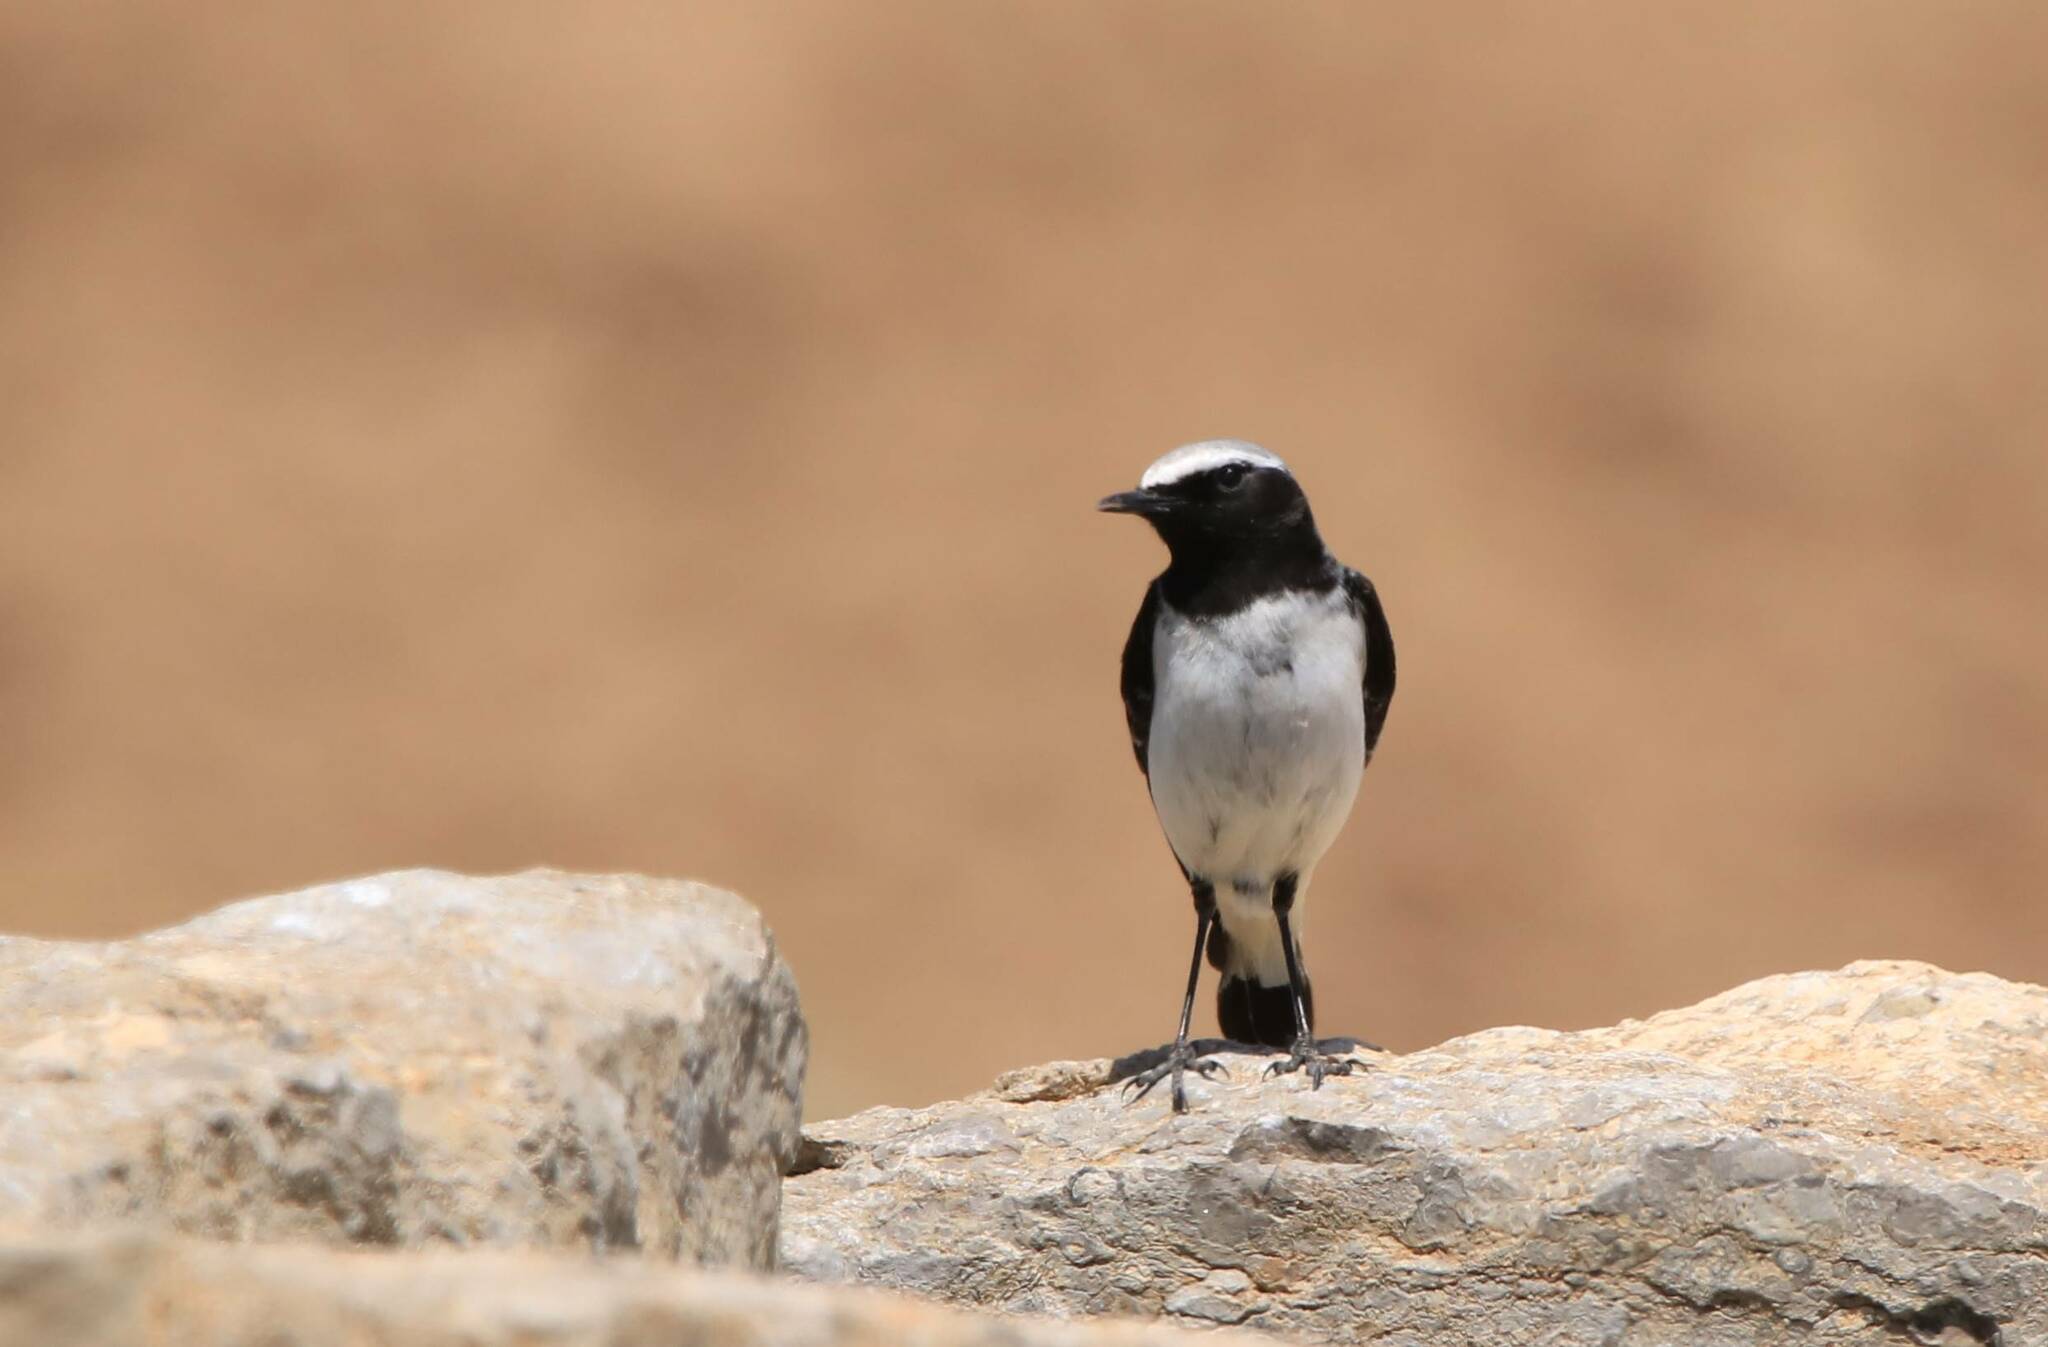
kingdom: Animalia
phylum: Chordata
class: Aves
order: Passeriformes
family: Muscicapidae
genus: Oenanthe
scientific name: Oenanthe oenanthe
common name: Northern wheatear
